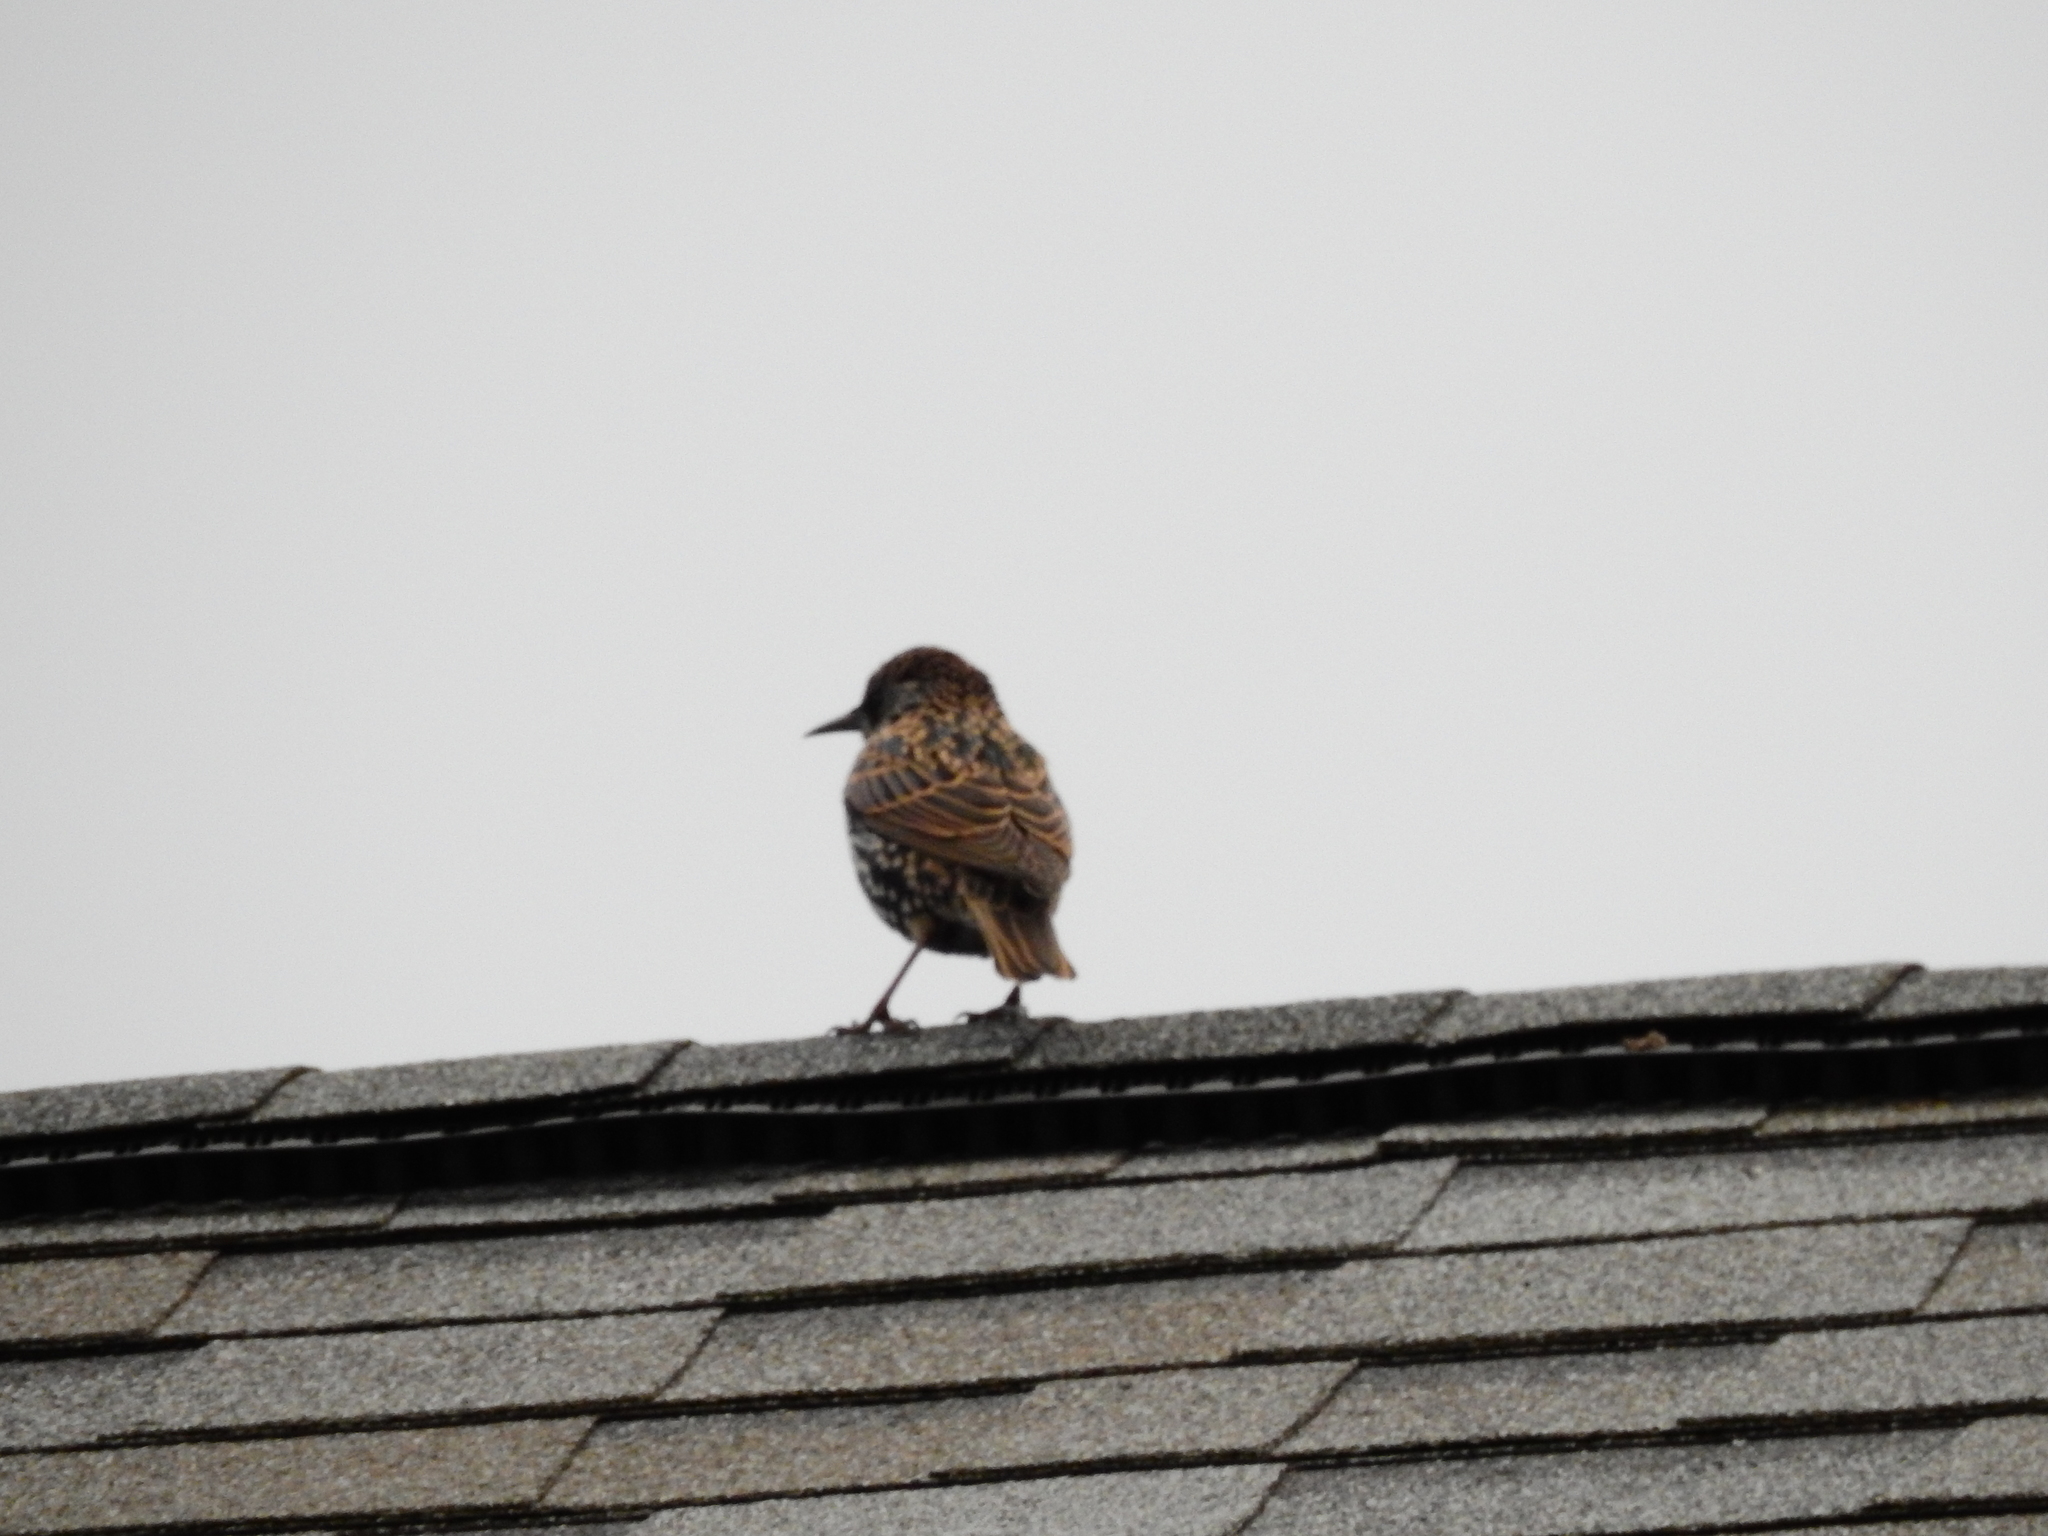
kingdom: Animalia
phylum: Chordata
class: Aves
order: Passeriformes
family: Sturnidae
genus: Sturnus
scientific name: Sturnus vulgaris
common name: Common starling
